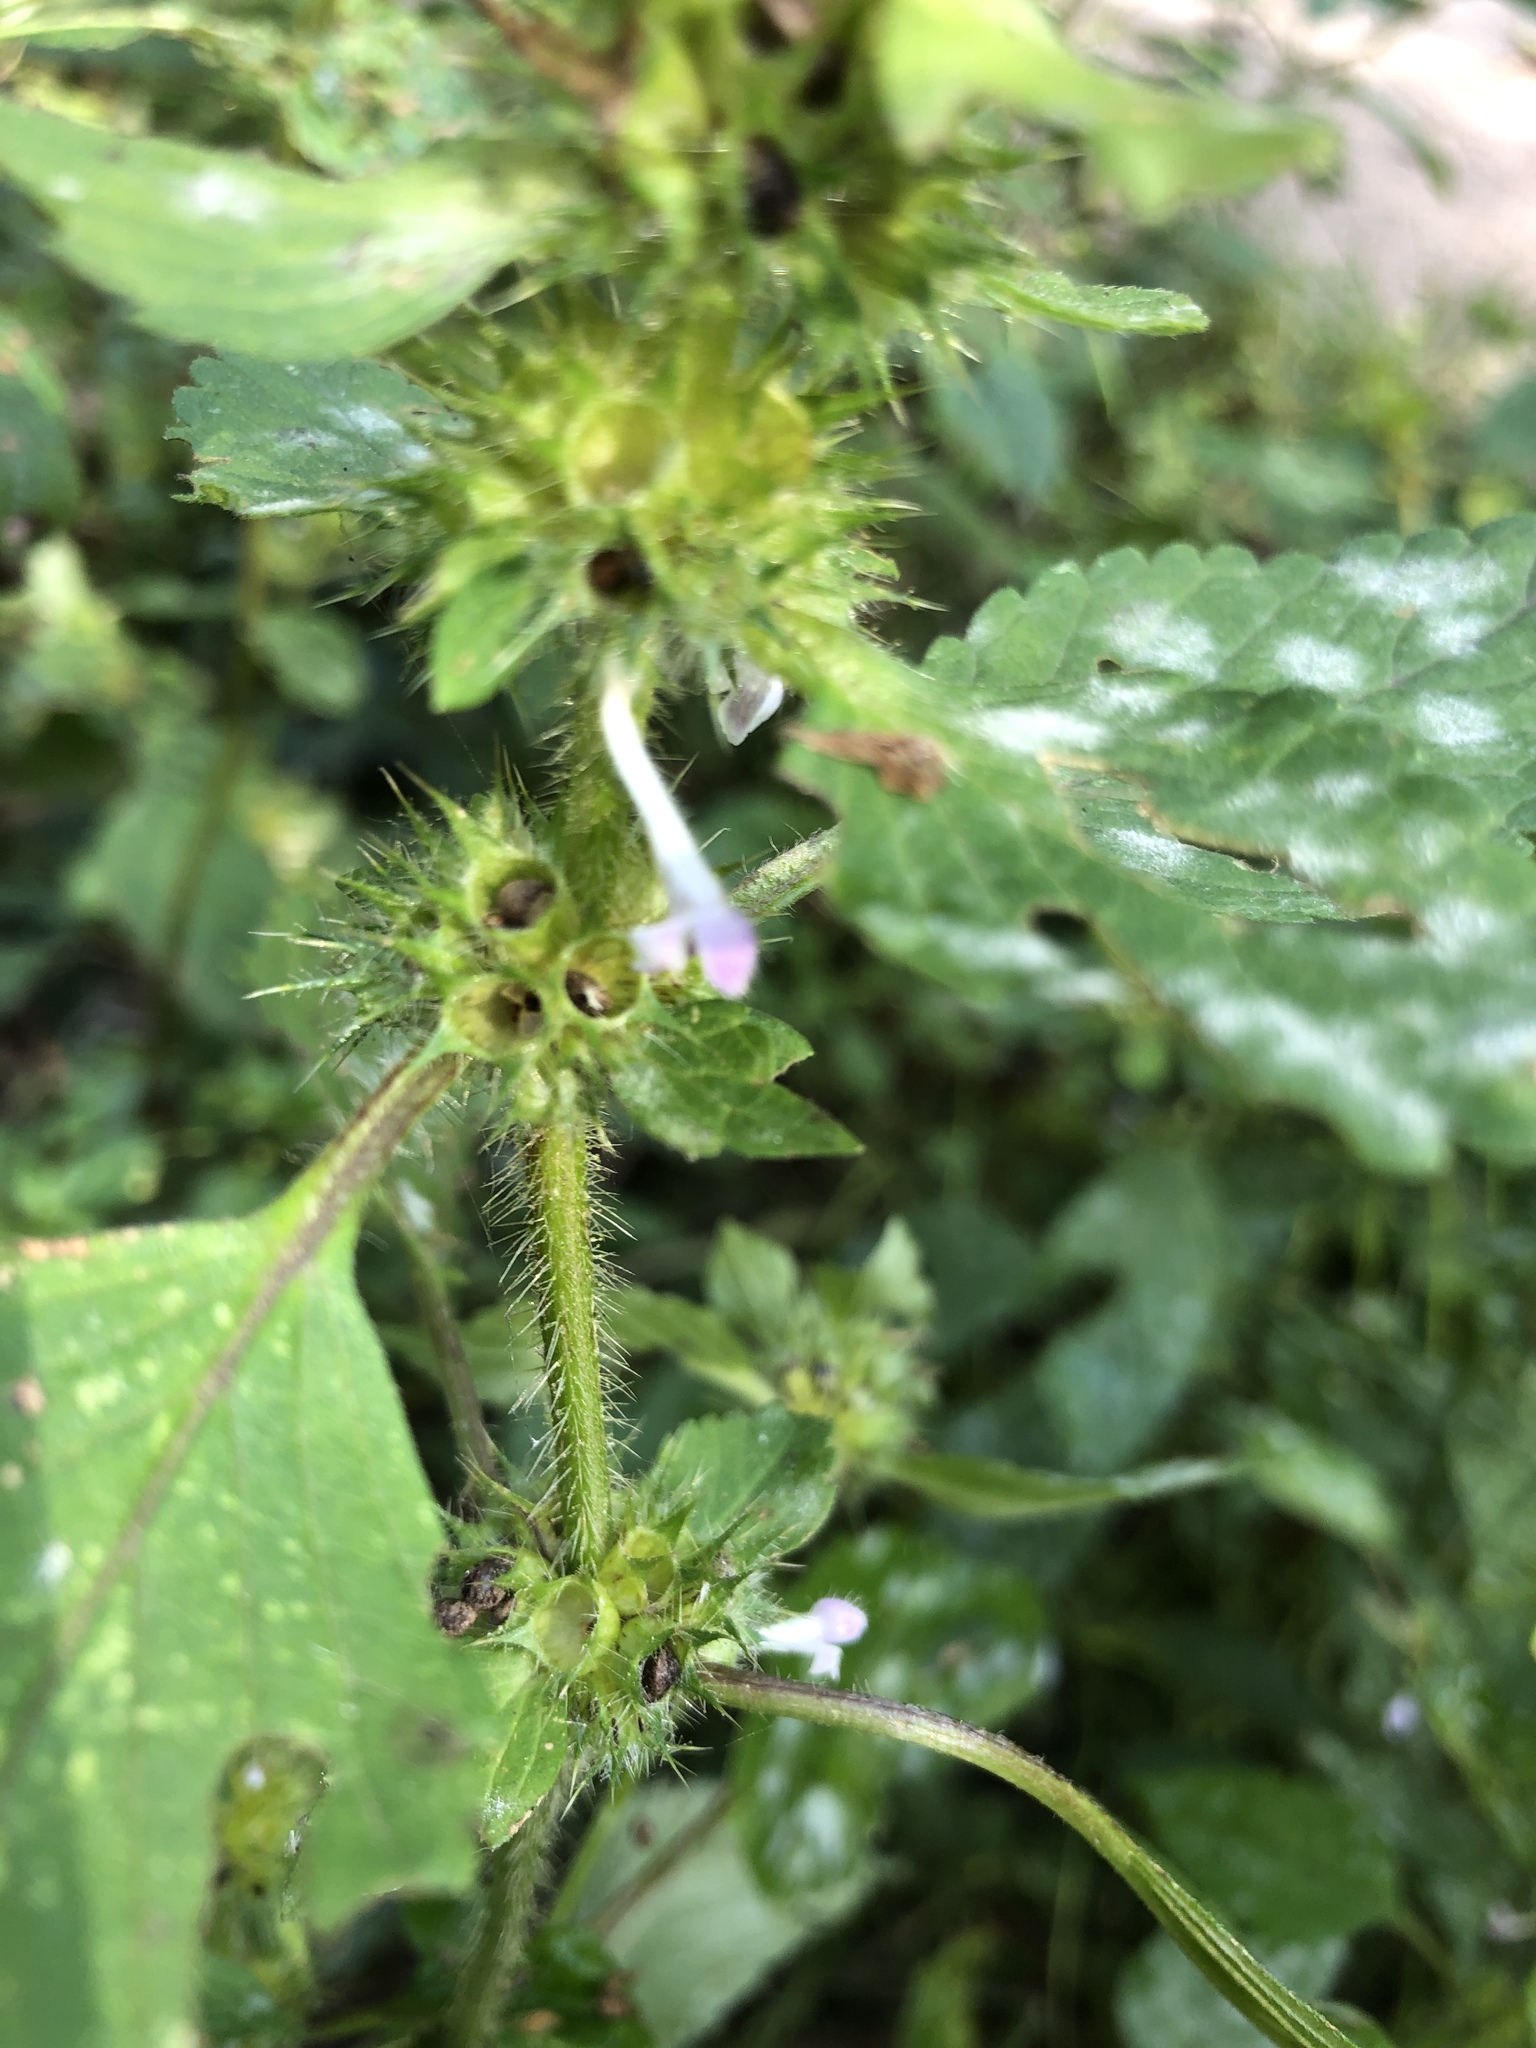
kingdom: Plantae
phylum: Tracheophyta
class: Magnoliopsida
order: Lamiales
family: Lamiaceae
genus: Galeopsis
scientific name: Galeopsis bifida
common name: Bifid hemp-nettle
